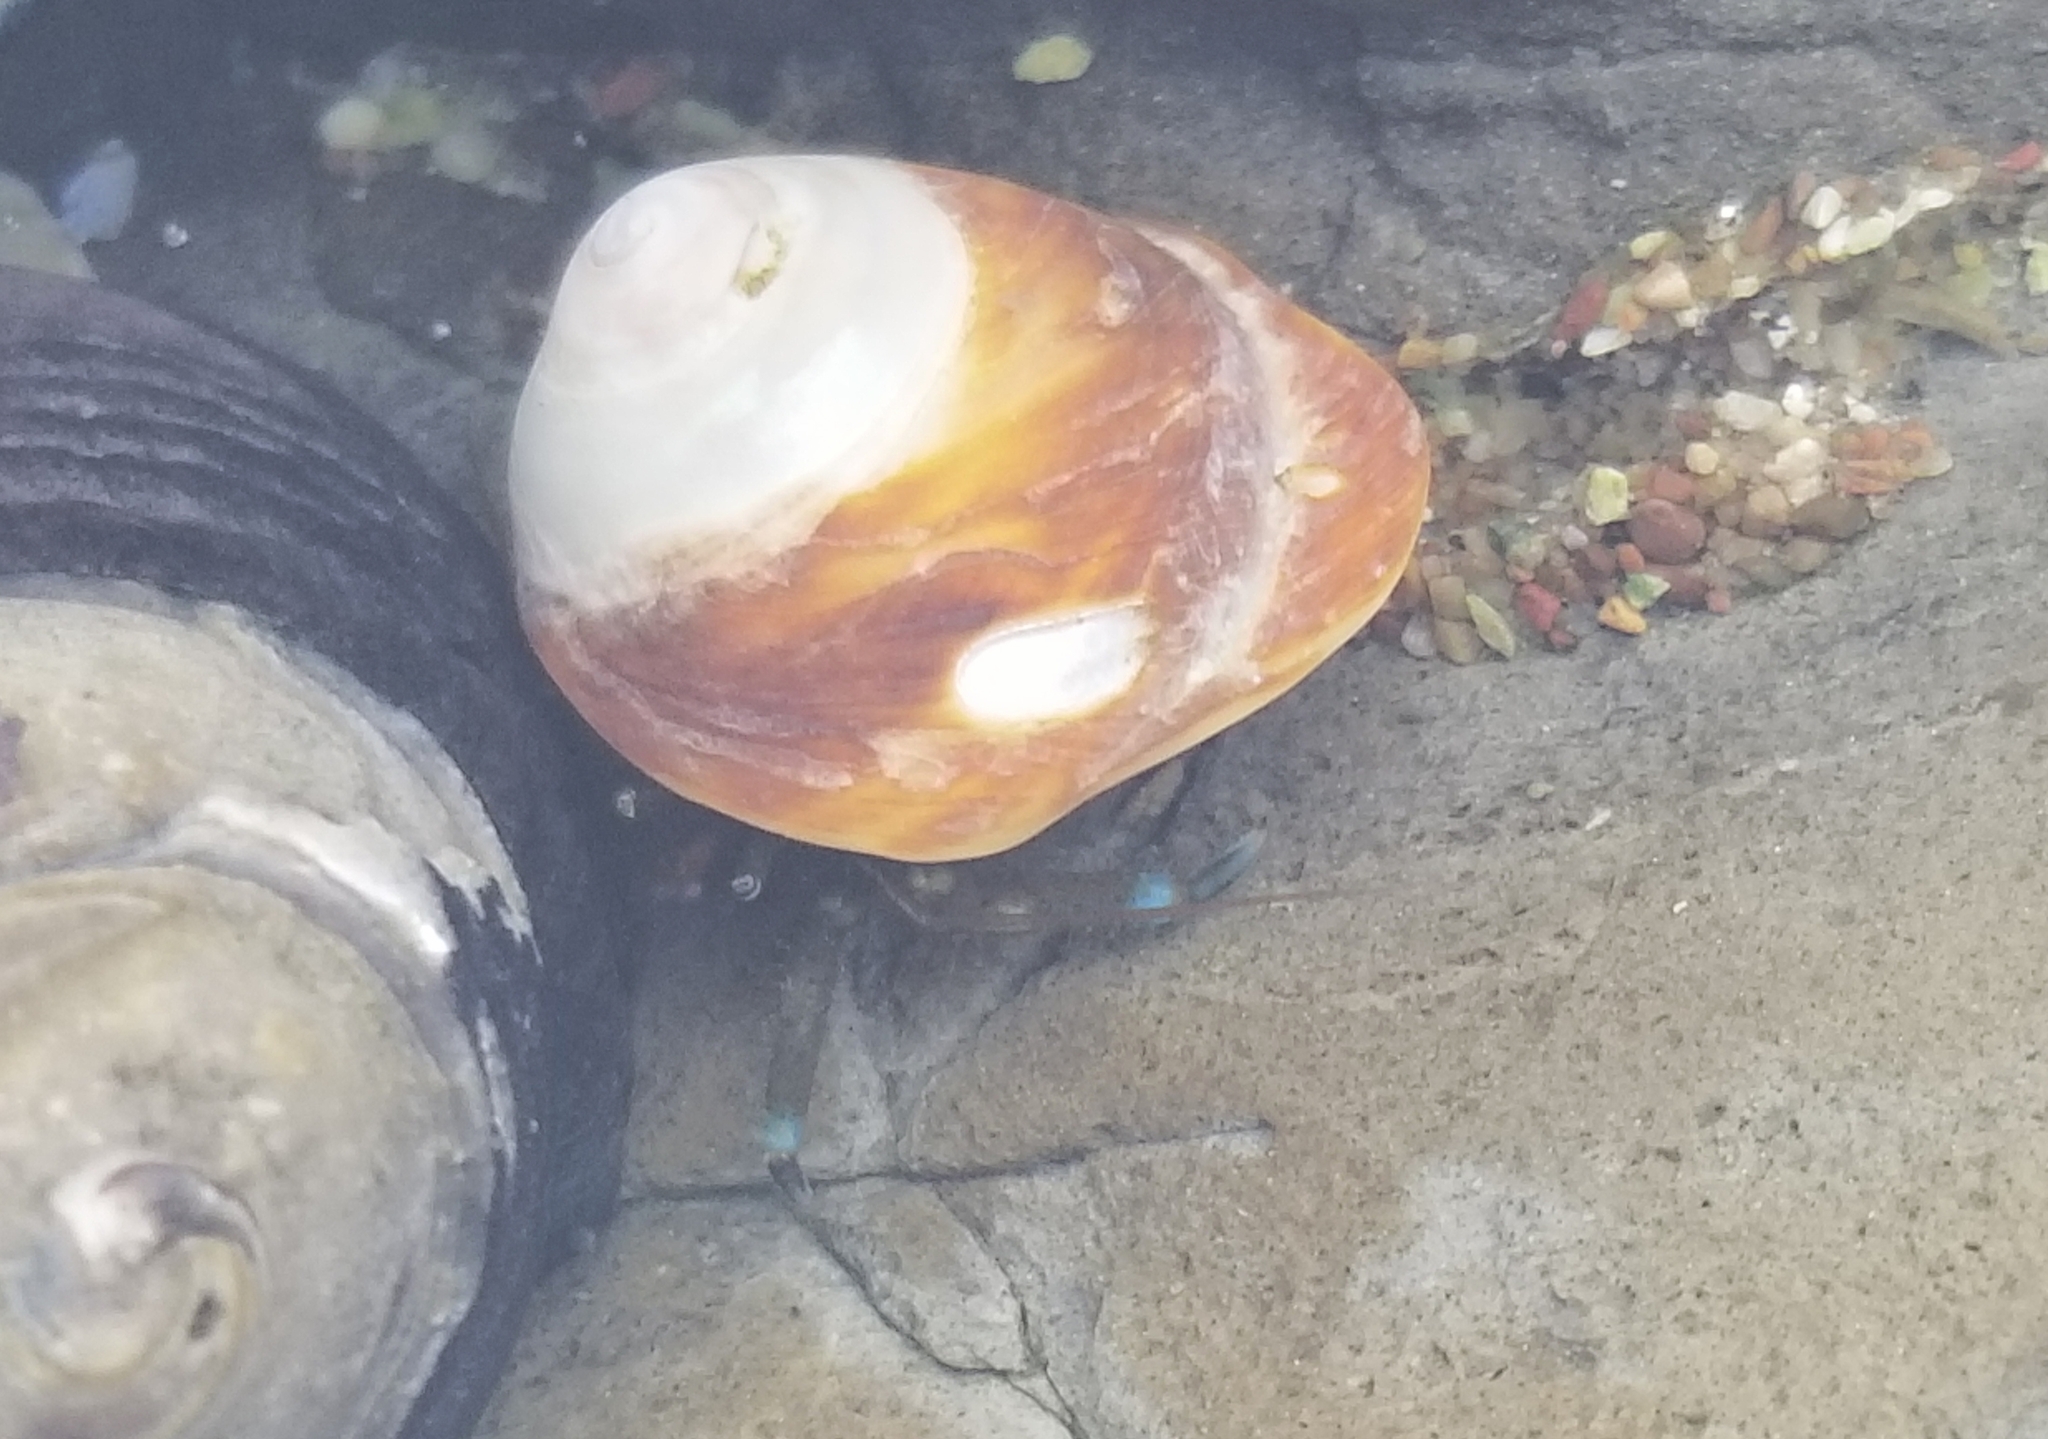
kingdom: Animalia
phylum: Arthropoda
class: Malacostraca
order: Decapoda
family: Paguridae
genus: Pagurus
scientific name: Pagurus samuelis
